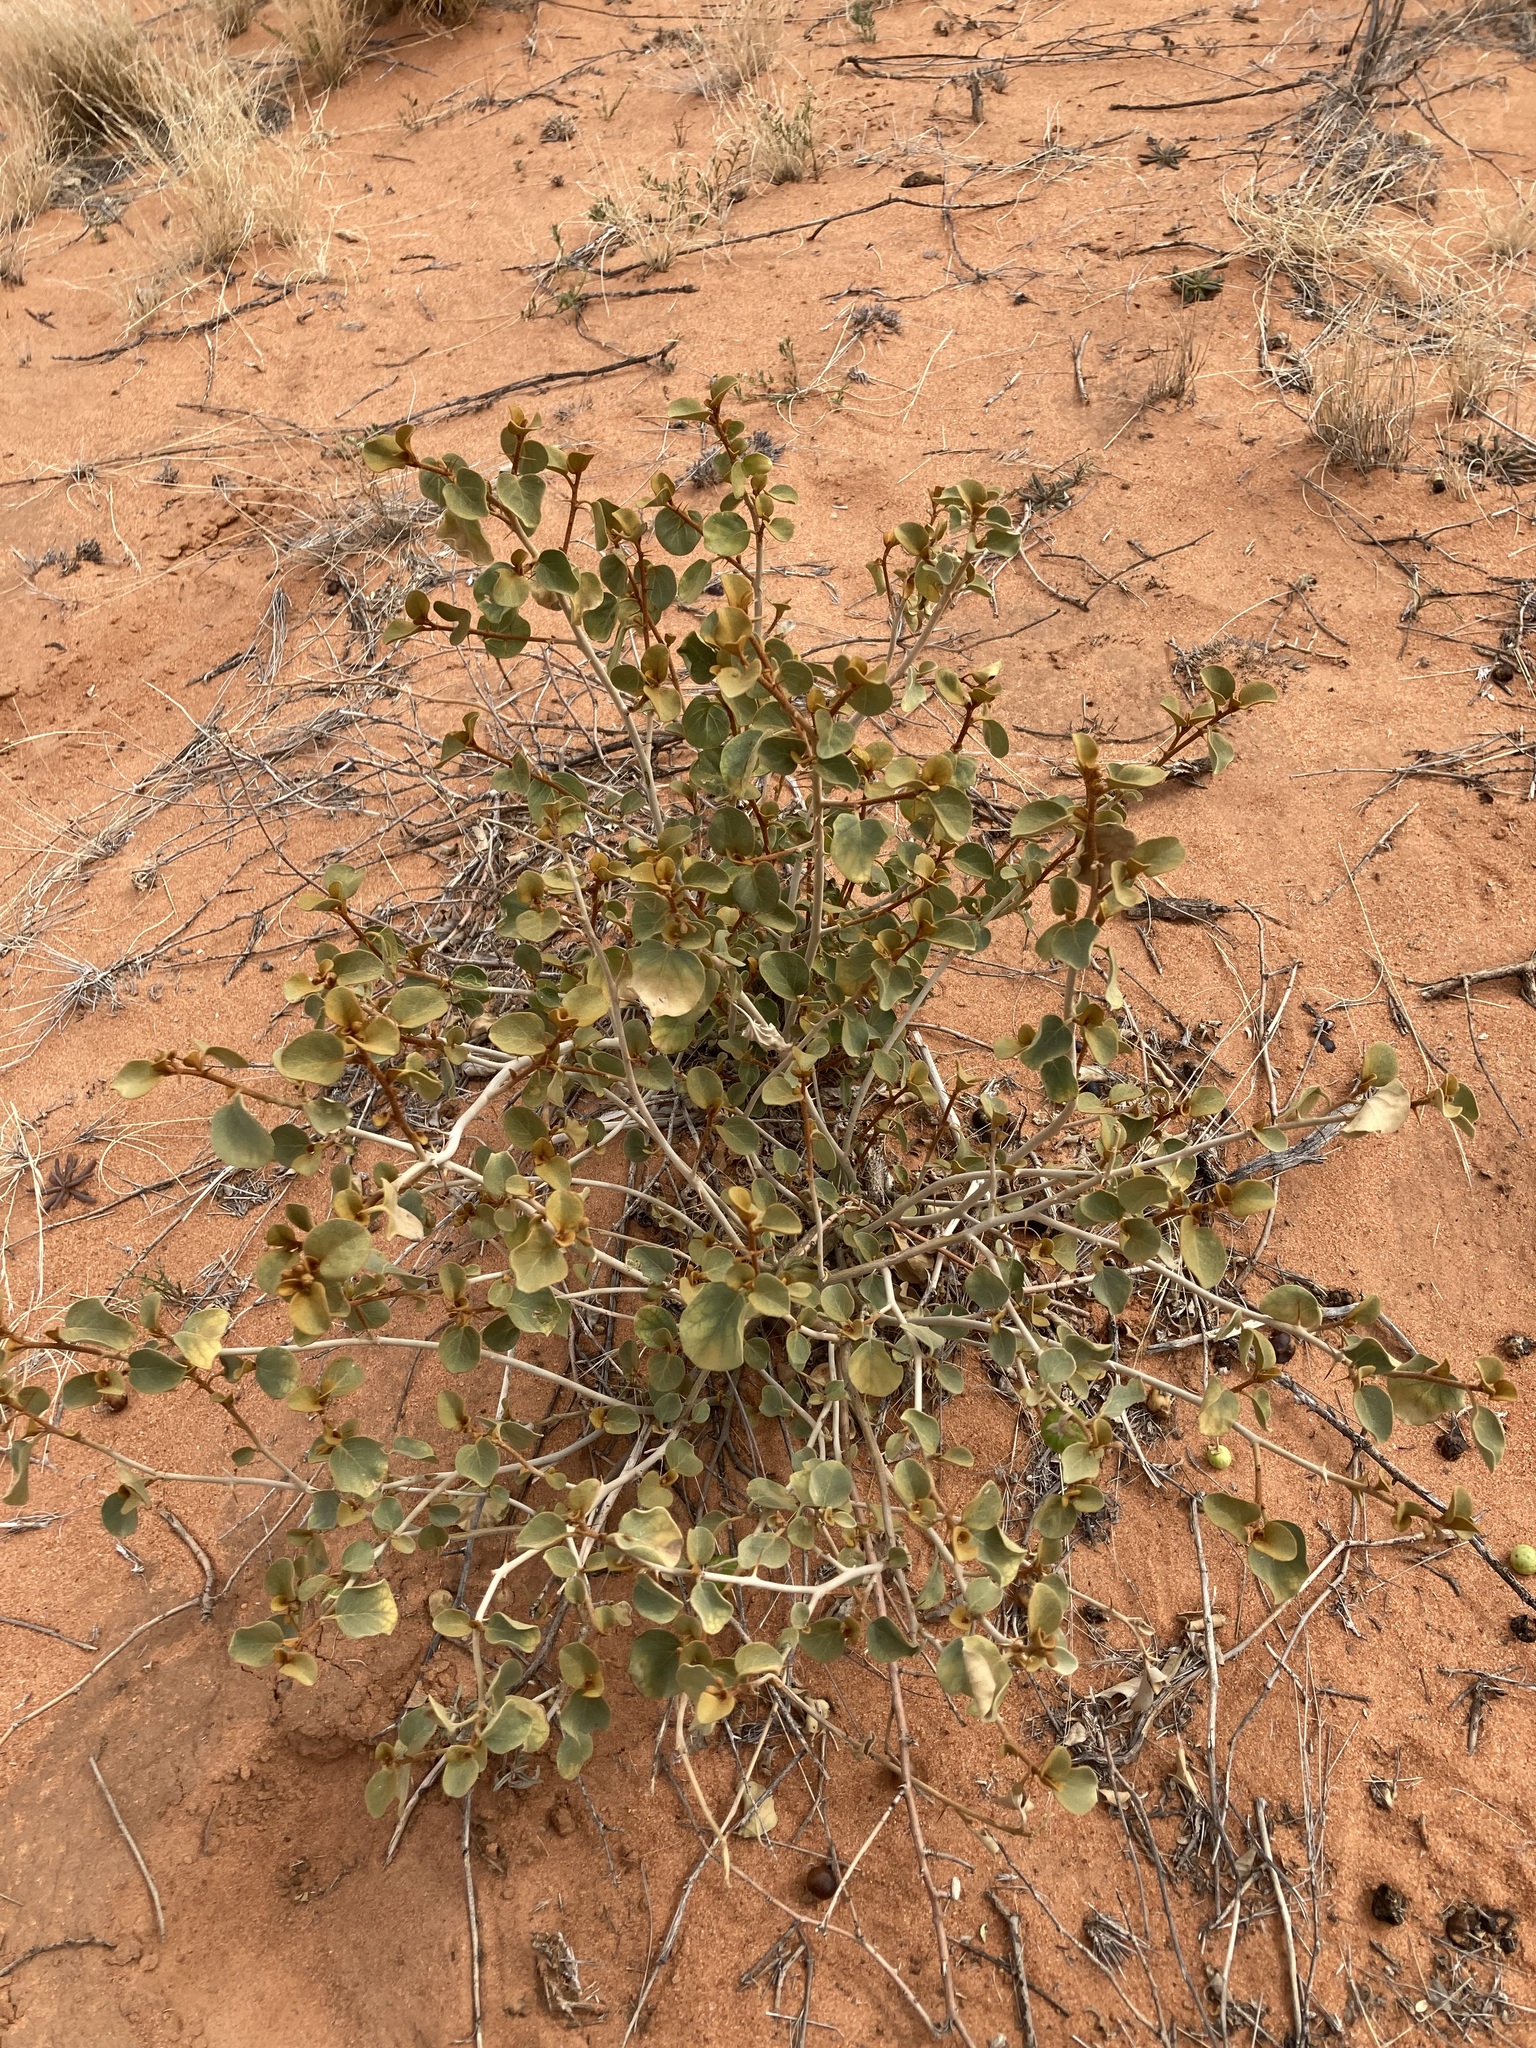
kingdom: Plantae
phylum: Tracheophyta
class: Magnoliopsida
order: Solanales
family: Solanaceae
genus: Solanum
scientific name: Solanum orbiculatum
